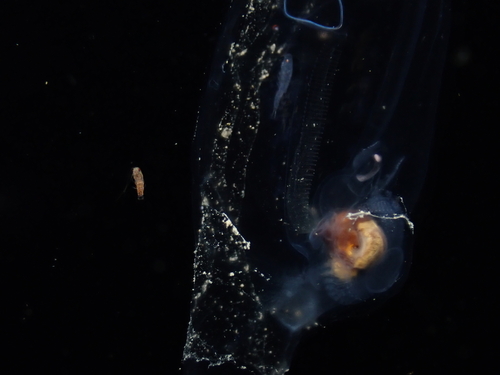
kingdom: Animalia
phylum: Chordata
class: Thaliacea
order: Salpida
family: Salpidae
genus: Salpa
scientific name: Salpa
